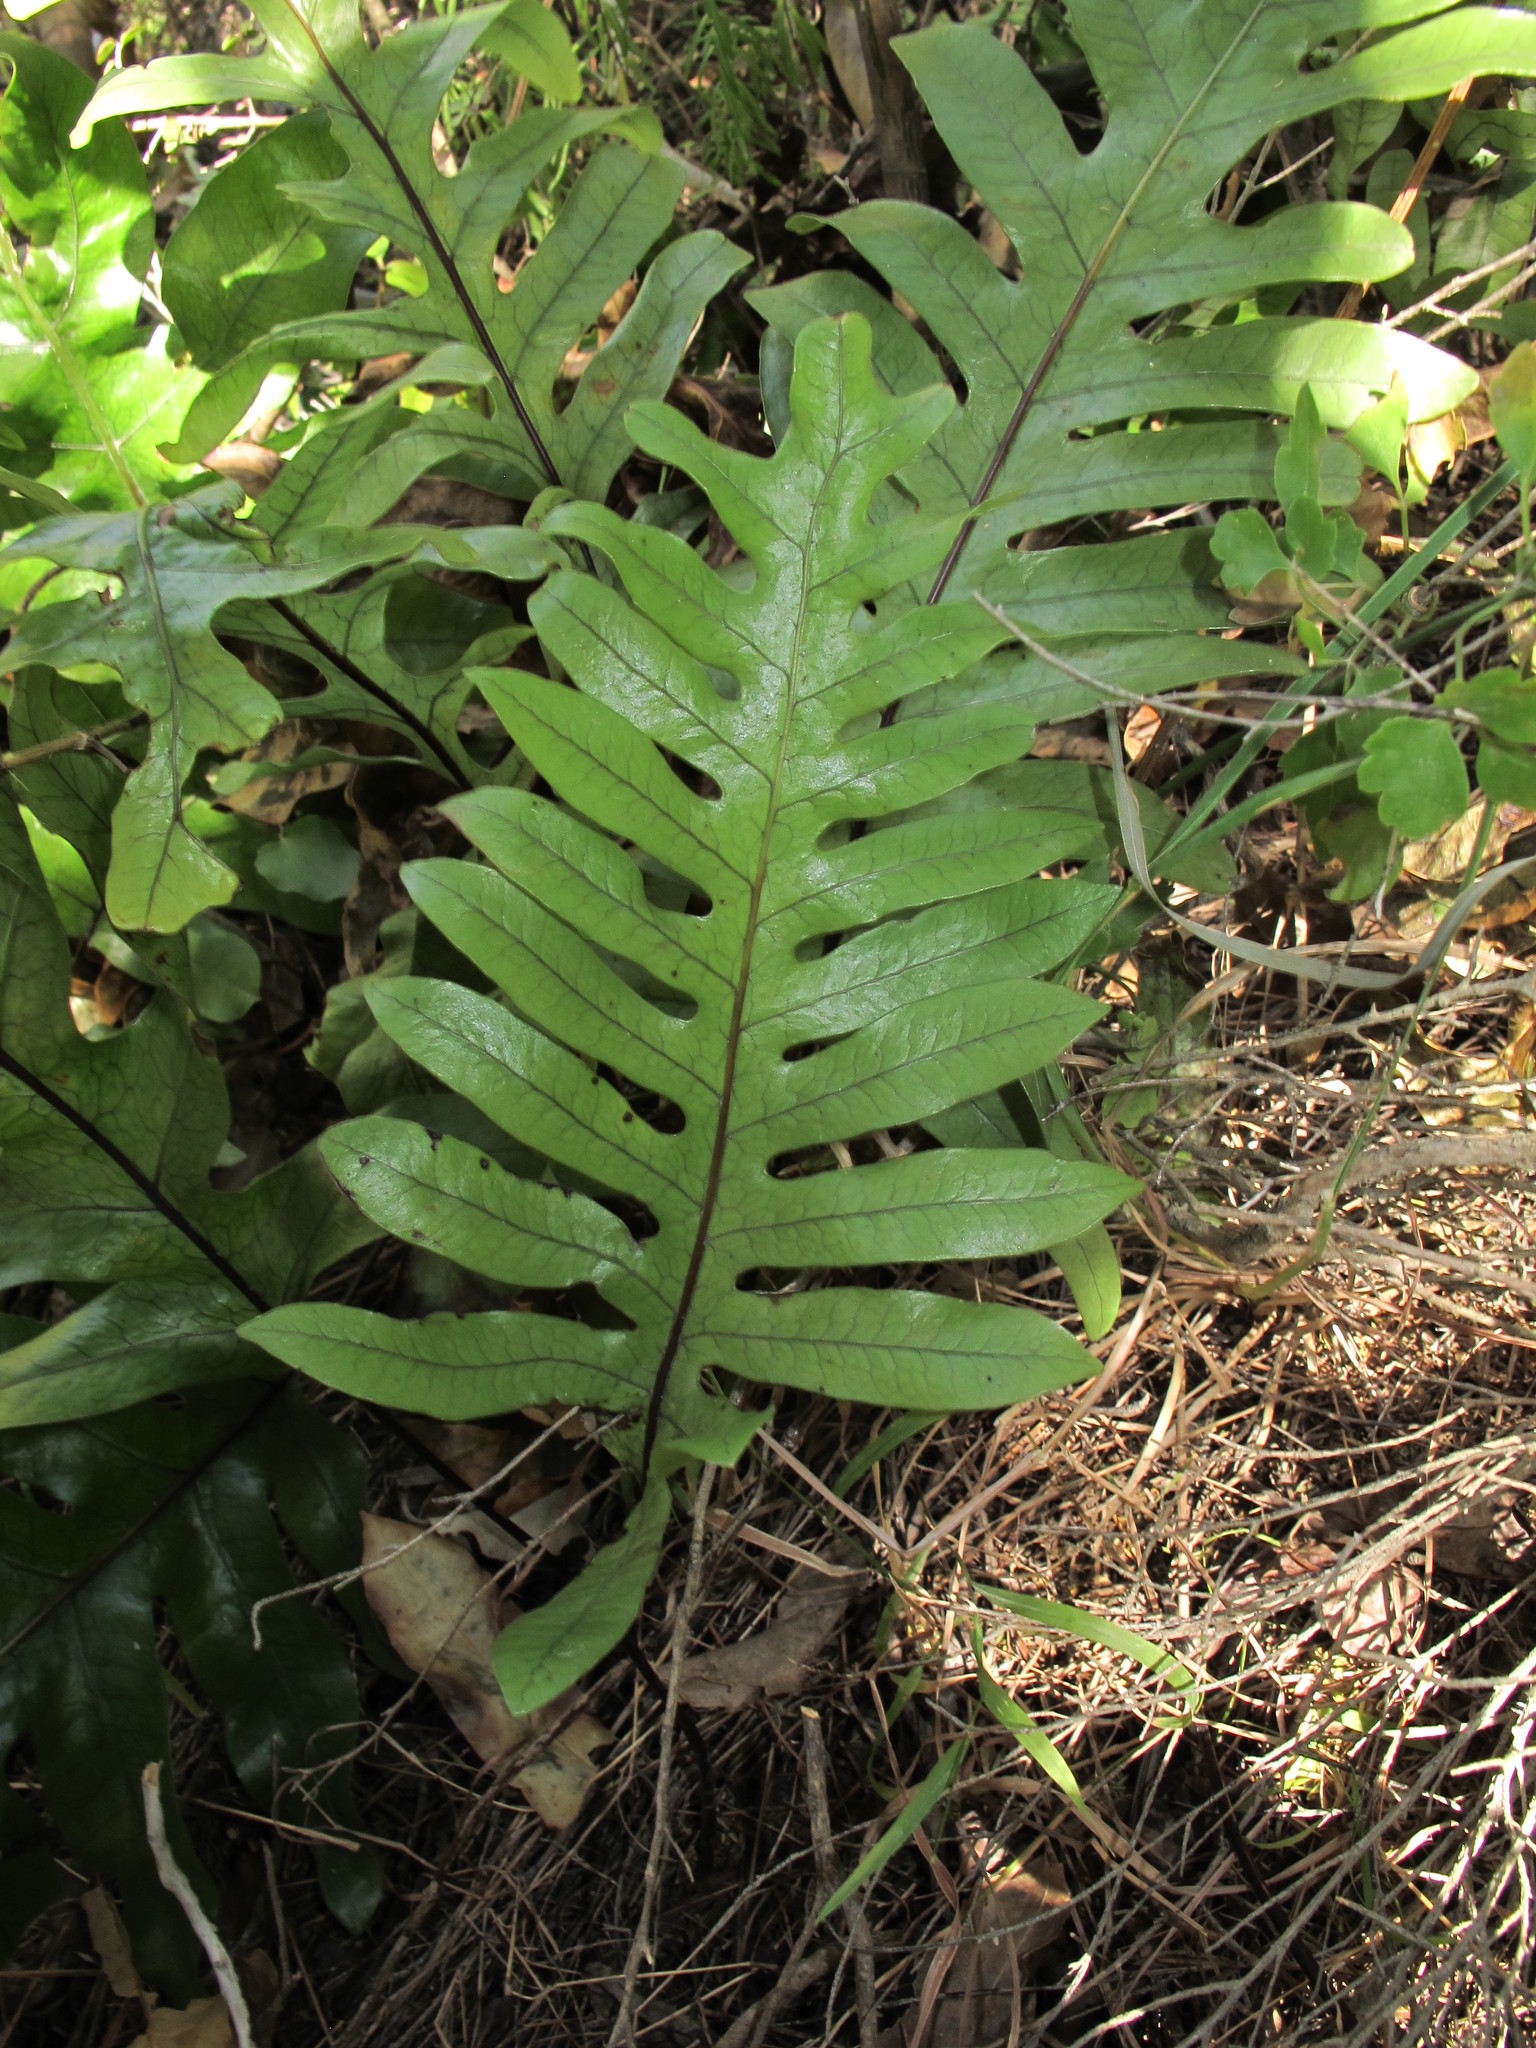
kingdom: Plantae
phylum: Tracheophyta
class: Polypodiopsida
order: Polypodiales
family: Polypodiaceae
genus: Lecanopteris
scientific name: Lecanopteris pustulata
